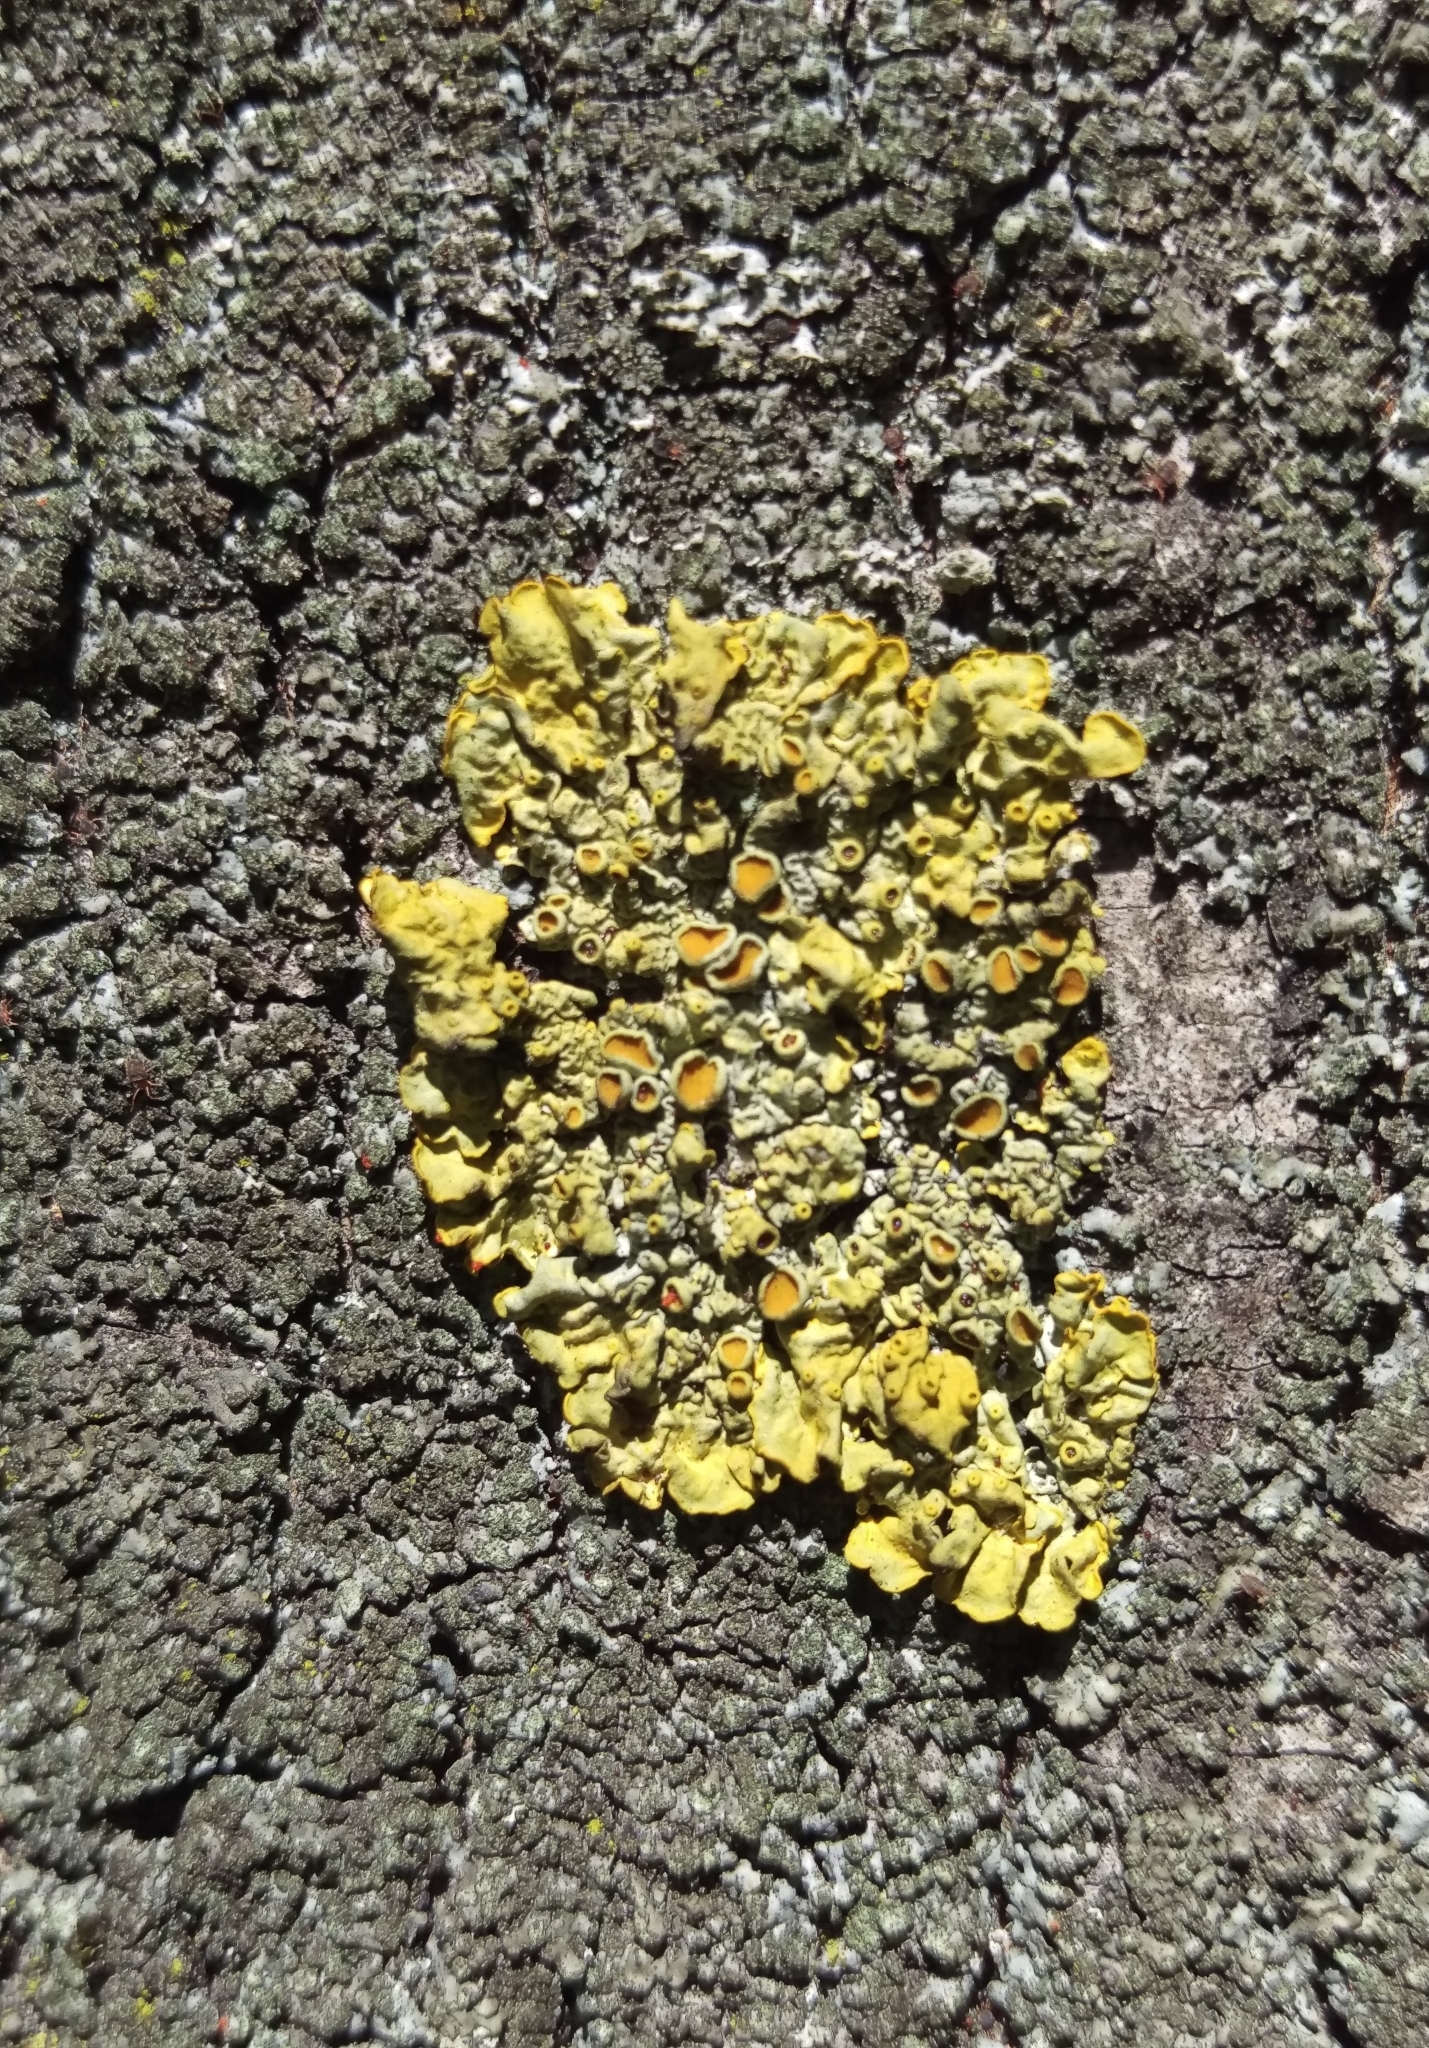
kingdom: Fungi
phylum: Ascomycota
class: Lecanoromycetes
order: Teloschistales
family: Teloschistaceae
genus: Xanthoria
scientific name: Xanthoria parietina
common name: Common orange lichen
